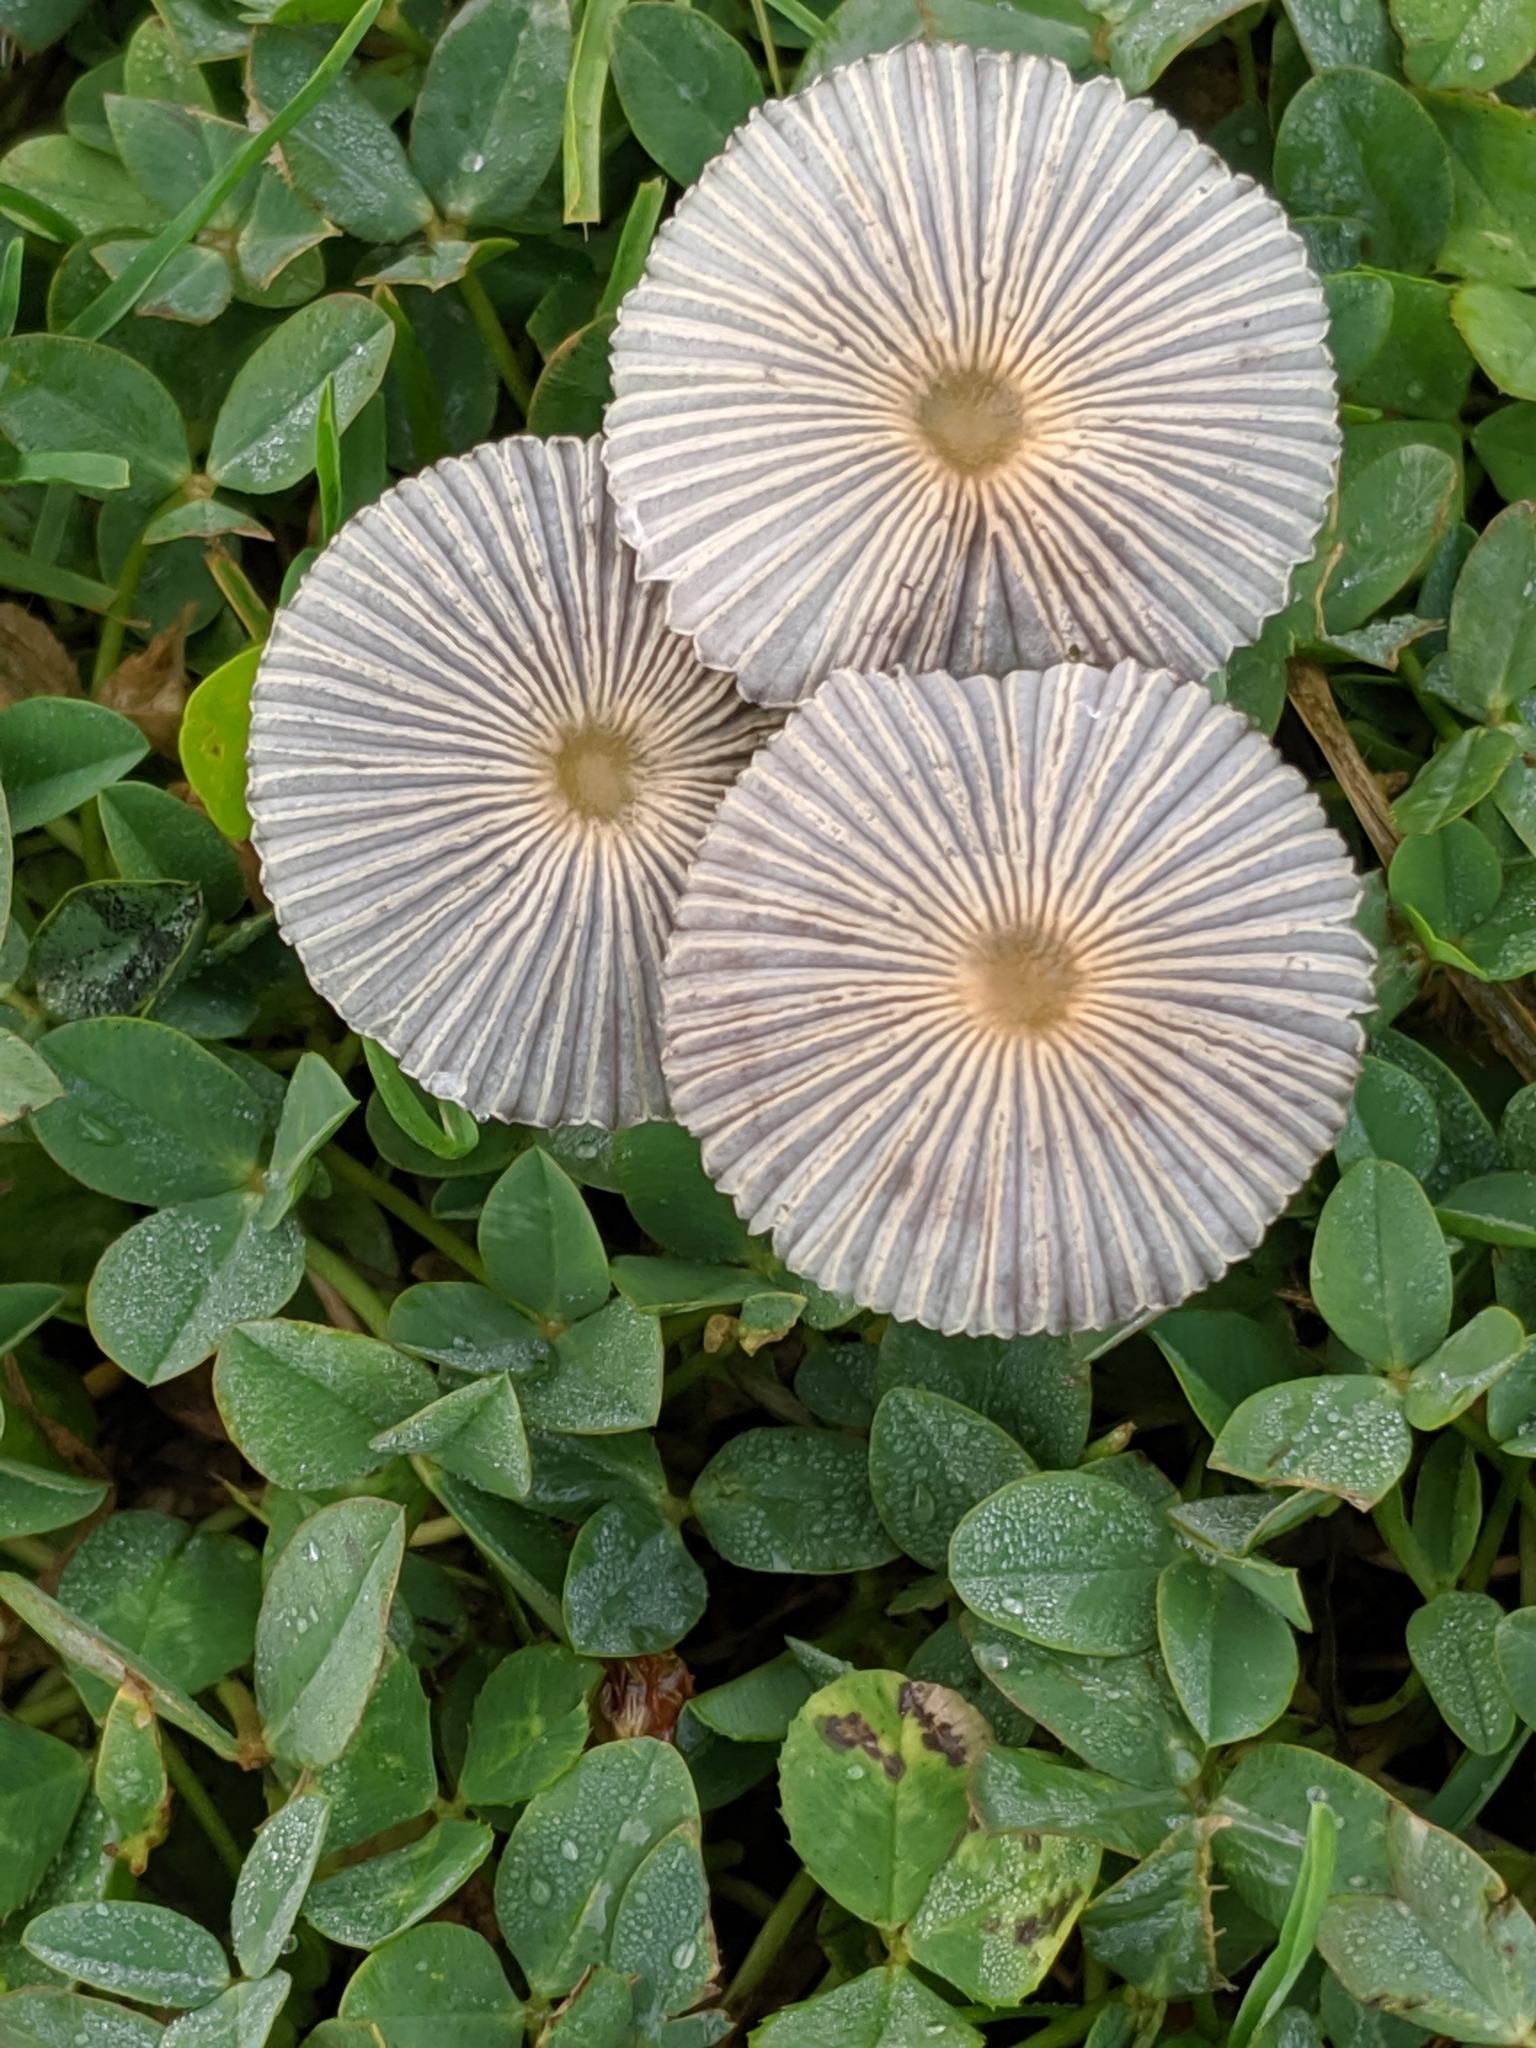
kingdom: Fungi
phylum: Basidiomycota
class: Agaricomycetes
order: Agaricales
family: Psathyrellaceae
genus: Parasola
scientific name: Parasola plicatilis
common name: Pleated inkcap
